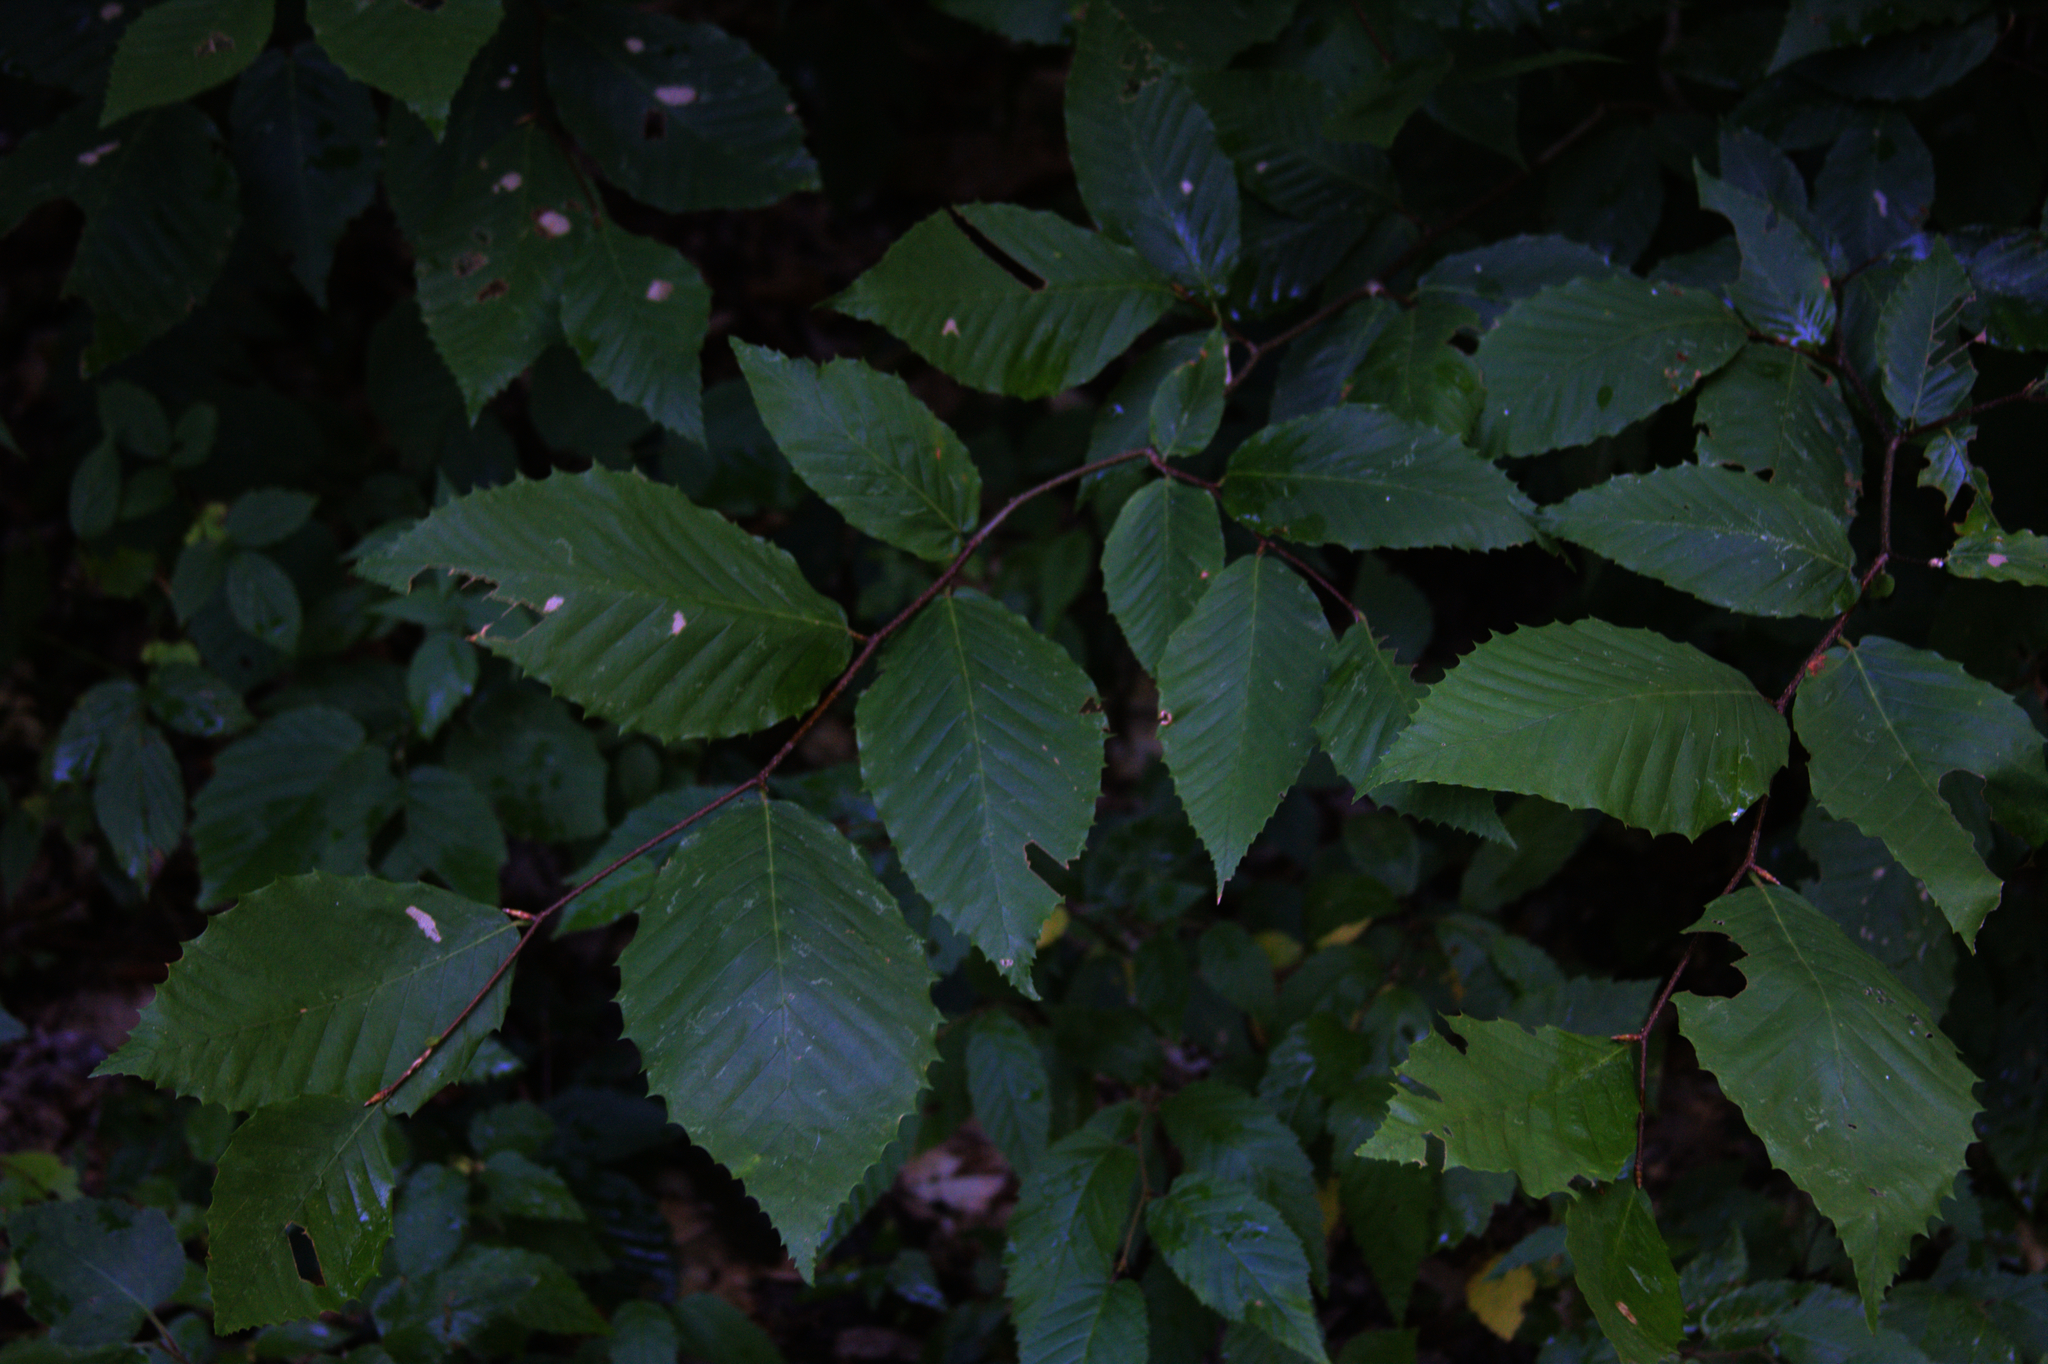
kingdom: Plantae
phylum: Tracheophyta
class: Magnoliopsida
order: Fagales
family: Fagaceae
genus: Fagus
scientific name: Fagus grandifolia
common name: American beech
